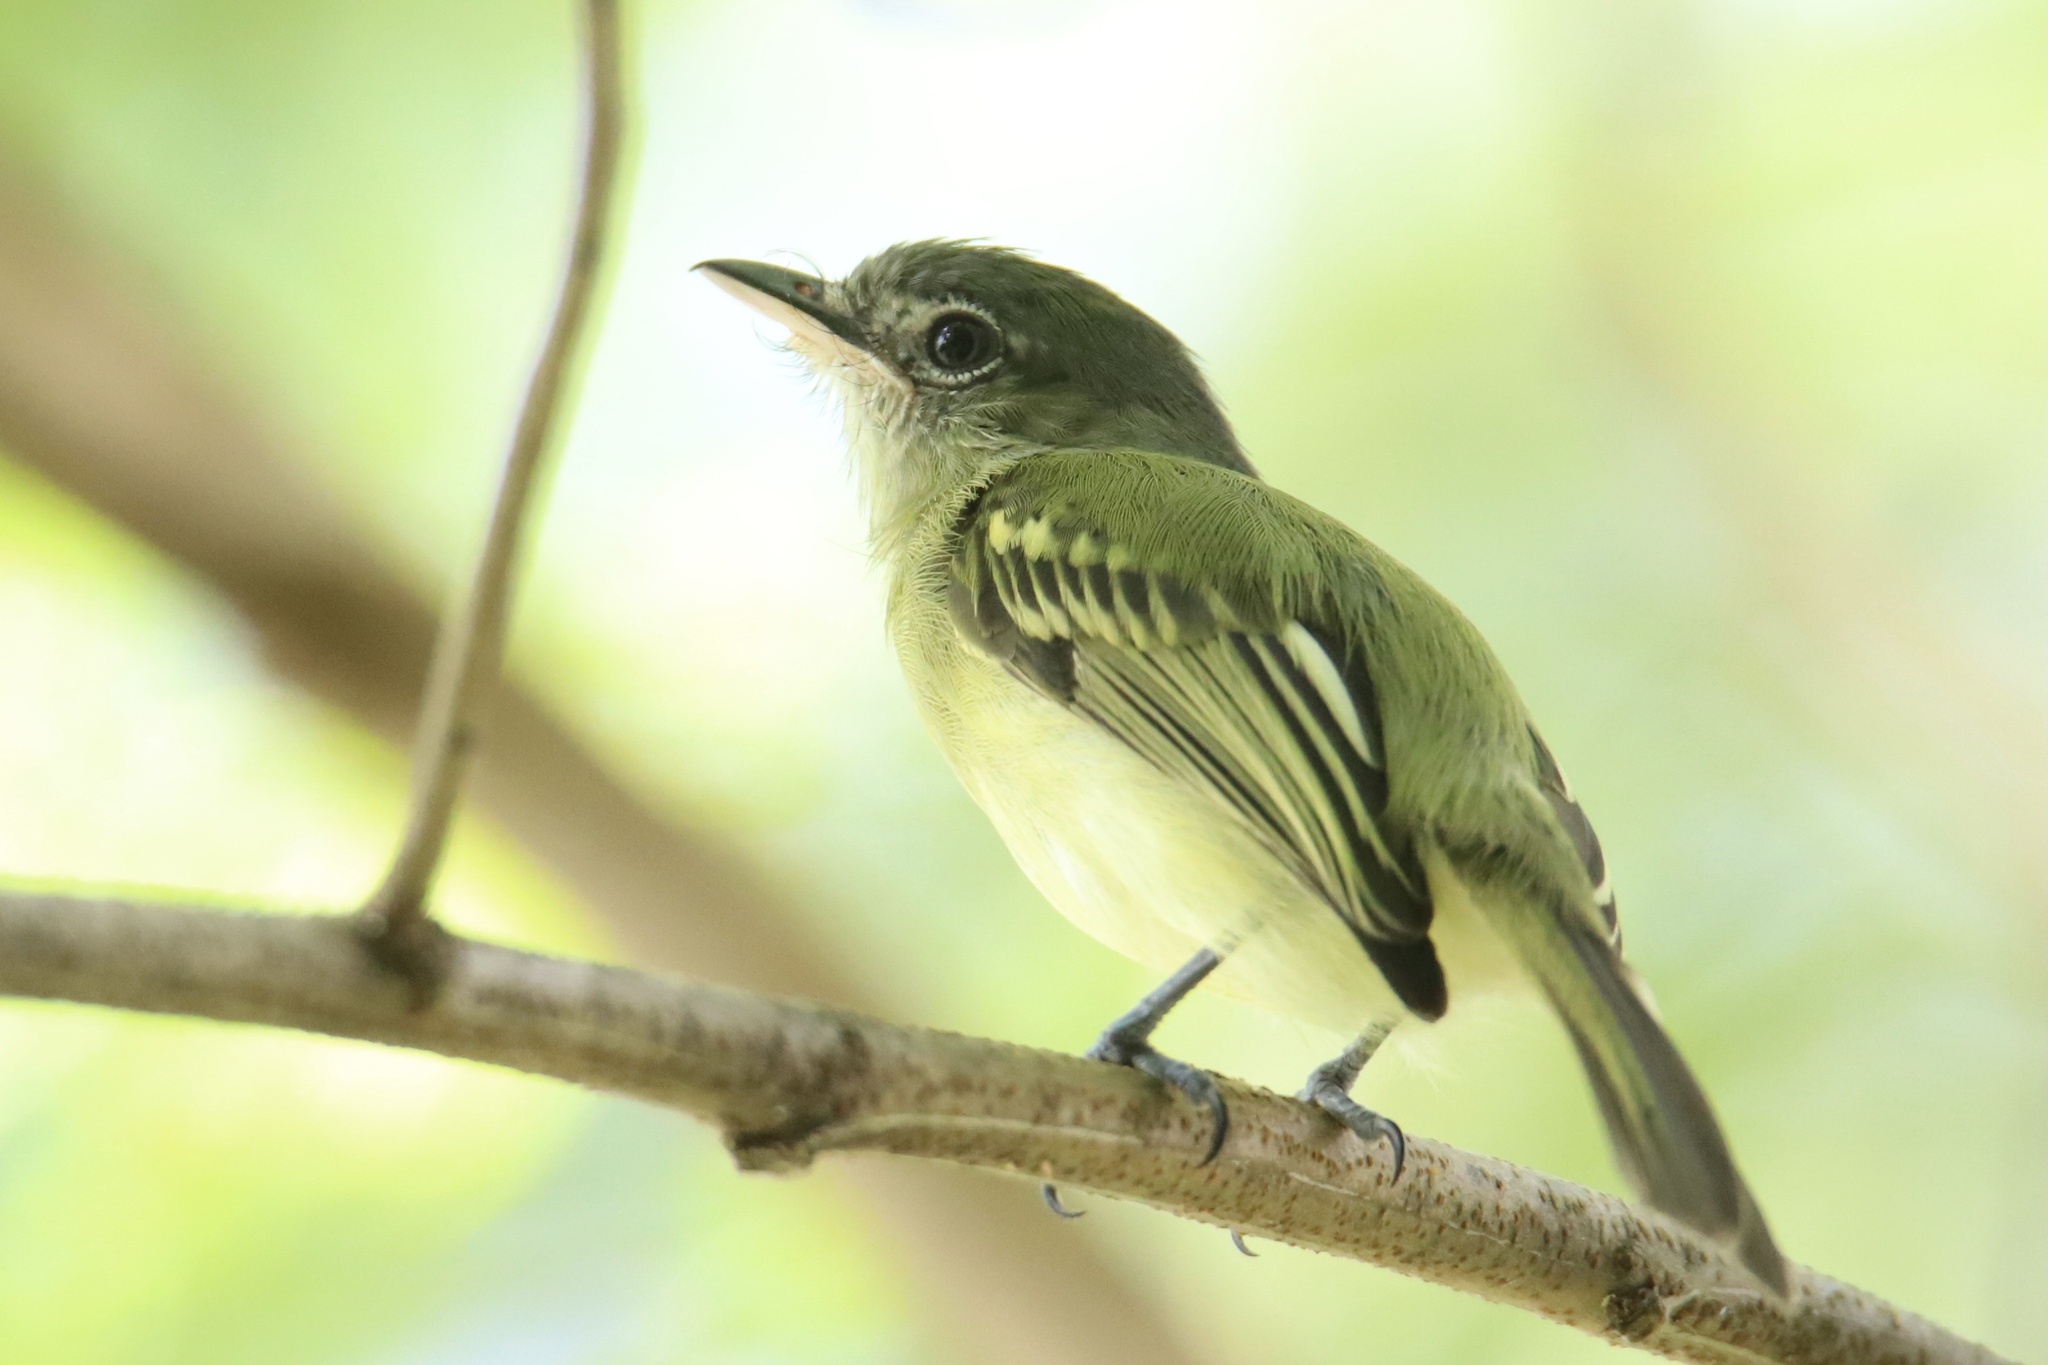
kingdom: Animalia
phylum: Chordata
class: Aves
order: Passeriformes
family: Tyrannidae
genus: Tolmomyias
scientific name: Tolmomyias sulphurescens
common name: Yellow-olive flycatcher
